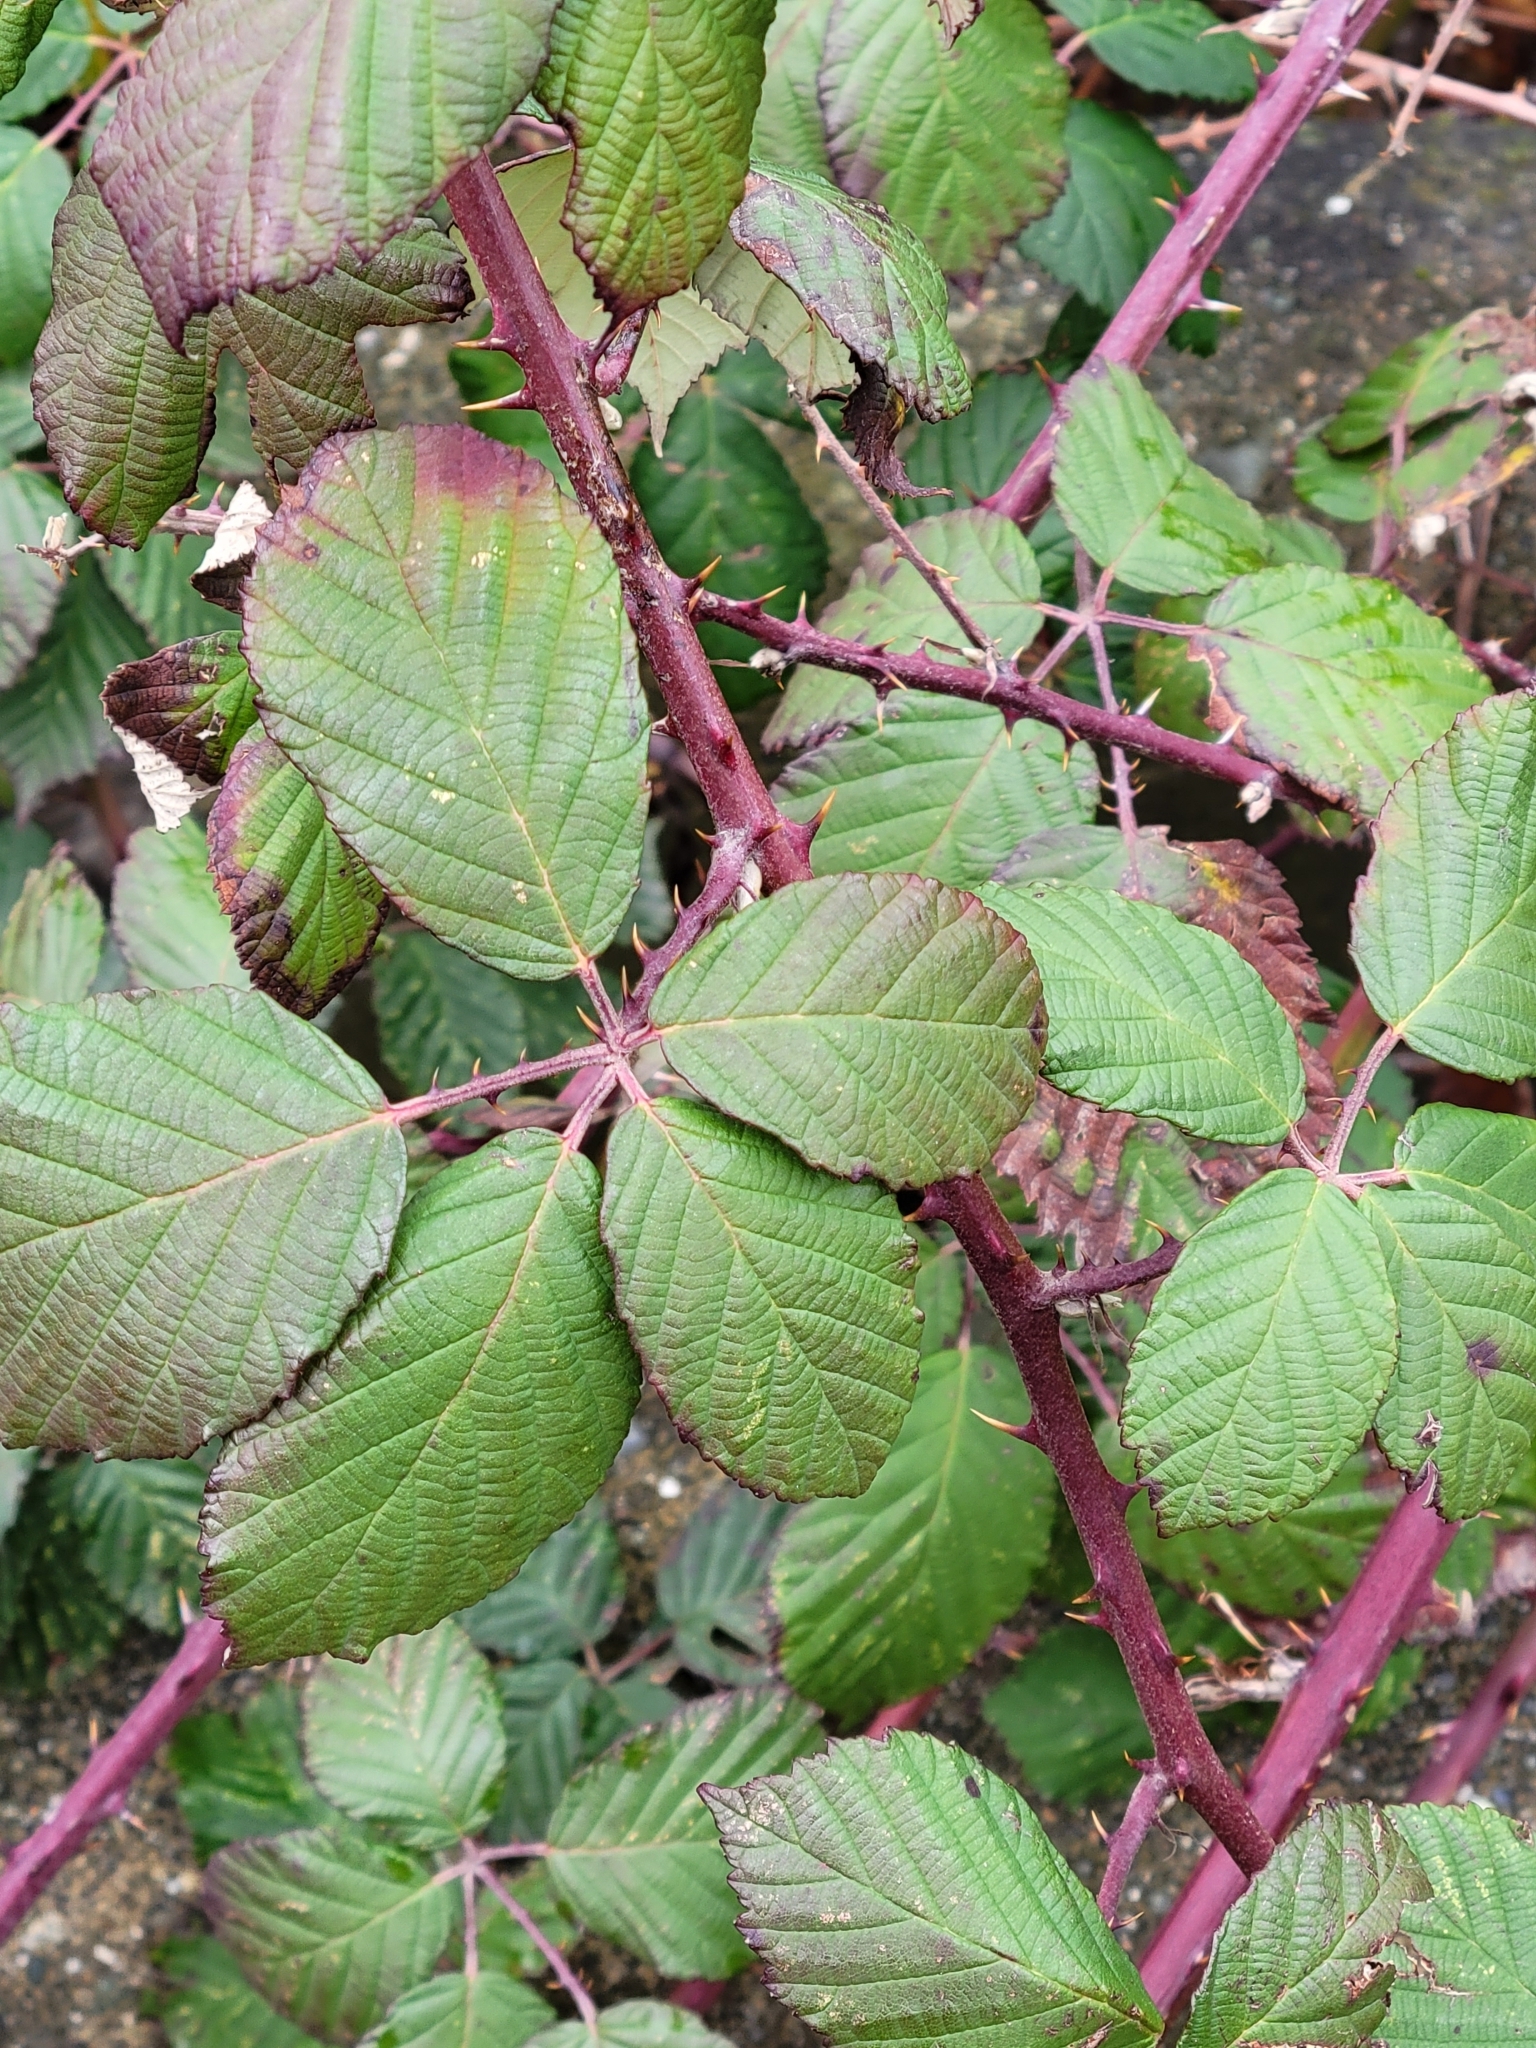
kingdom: Plantae
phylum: Tracheophyta
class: Magnoliopsida
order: Rosales
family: Rosaceae
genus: Rubus
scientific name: Rubus bifrons
